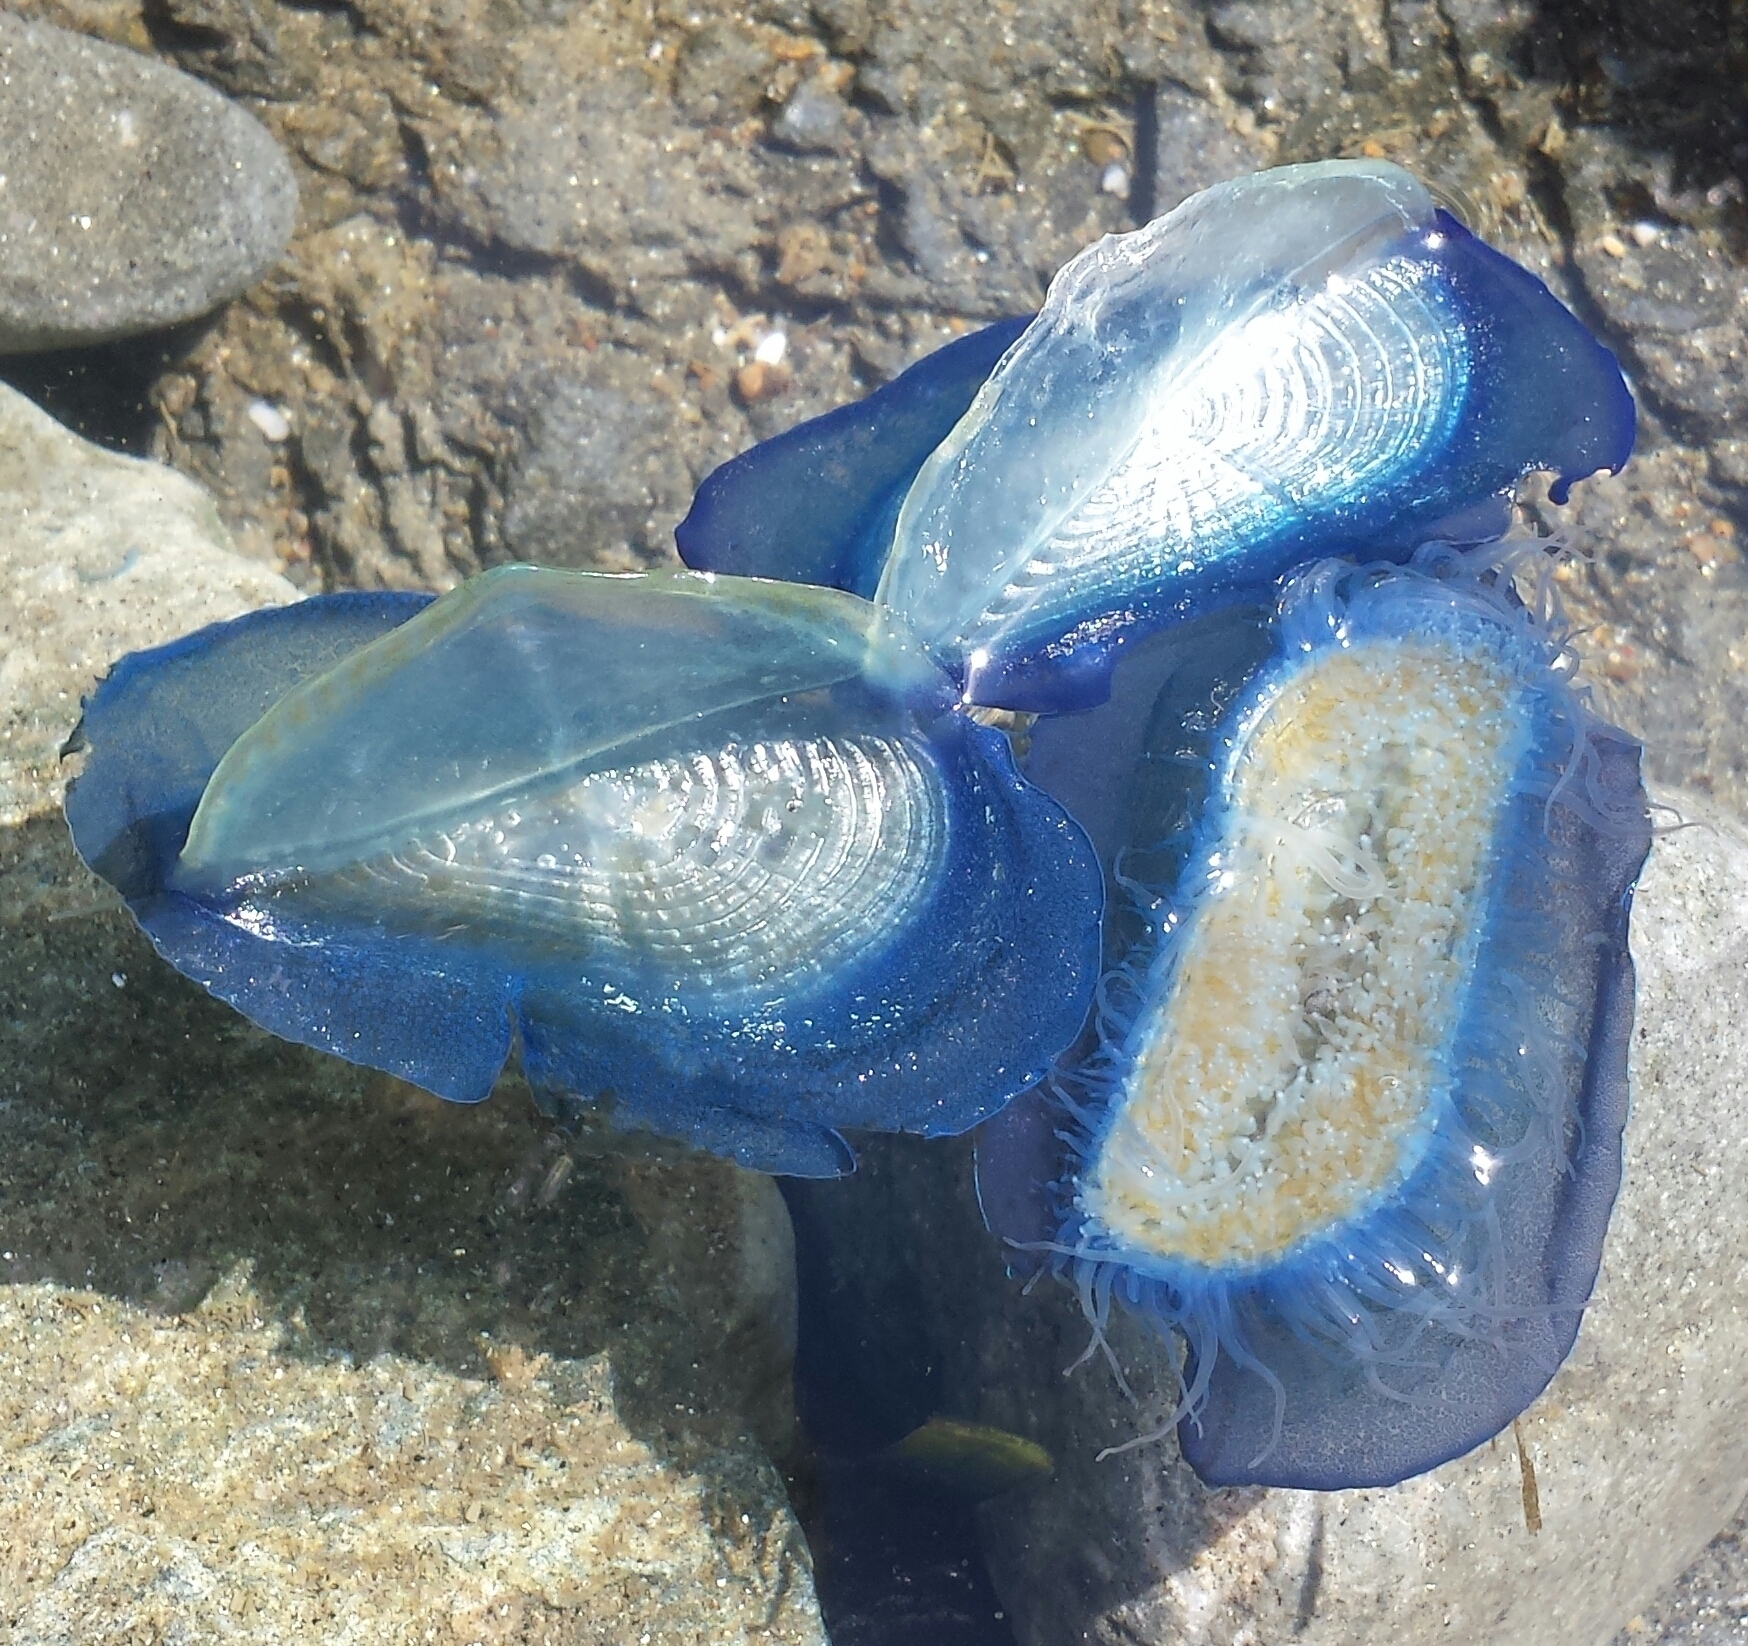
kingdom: Animalia
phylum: Cnidaria
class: Hydrozoa
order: Anthoathecata
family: Porpitidae
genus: Velella
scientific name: Velella velella
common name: By-the-wind-sailor
